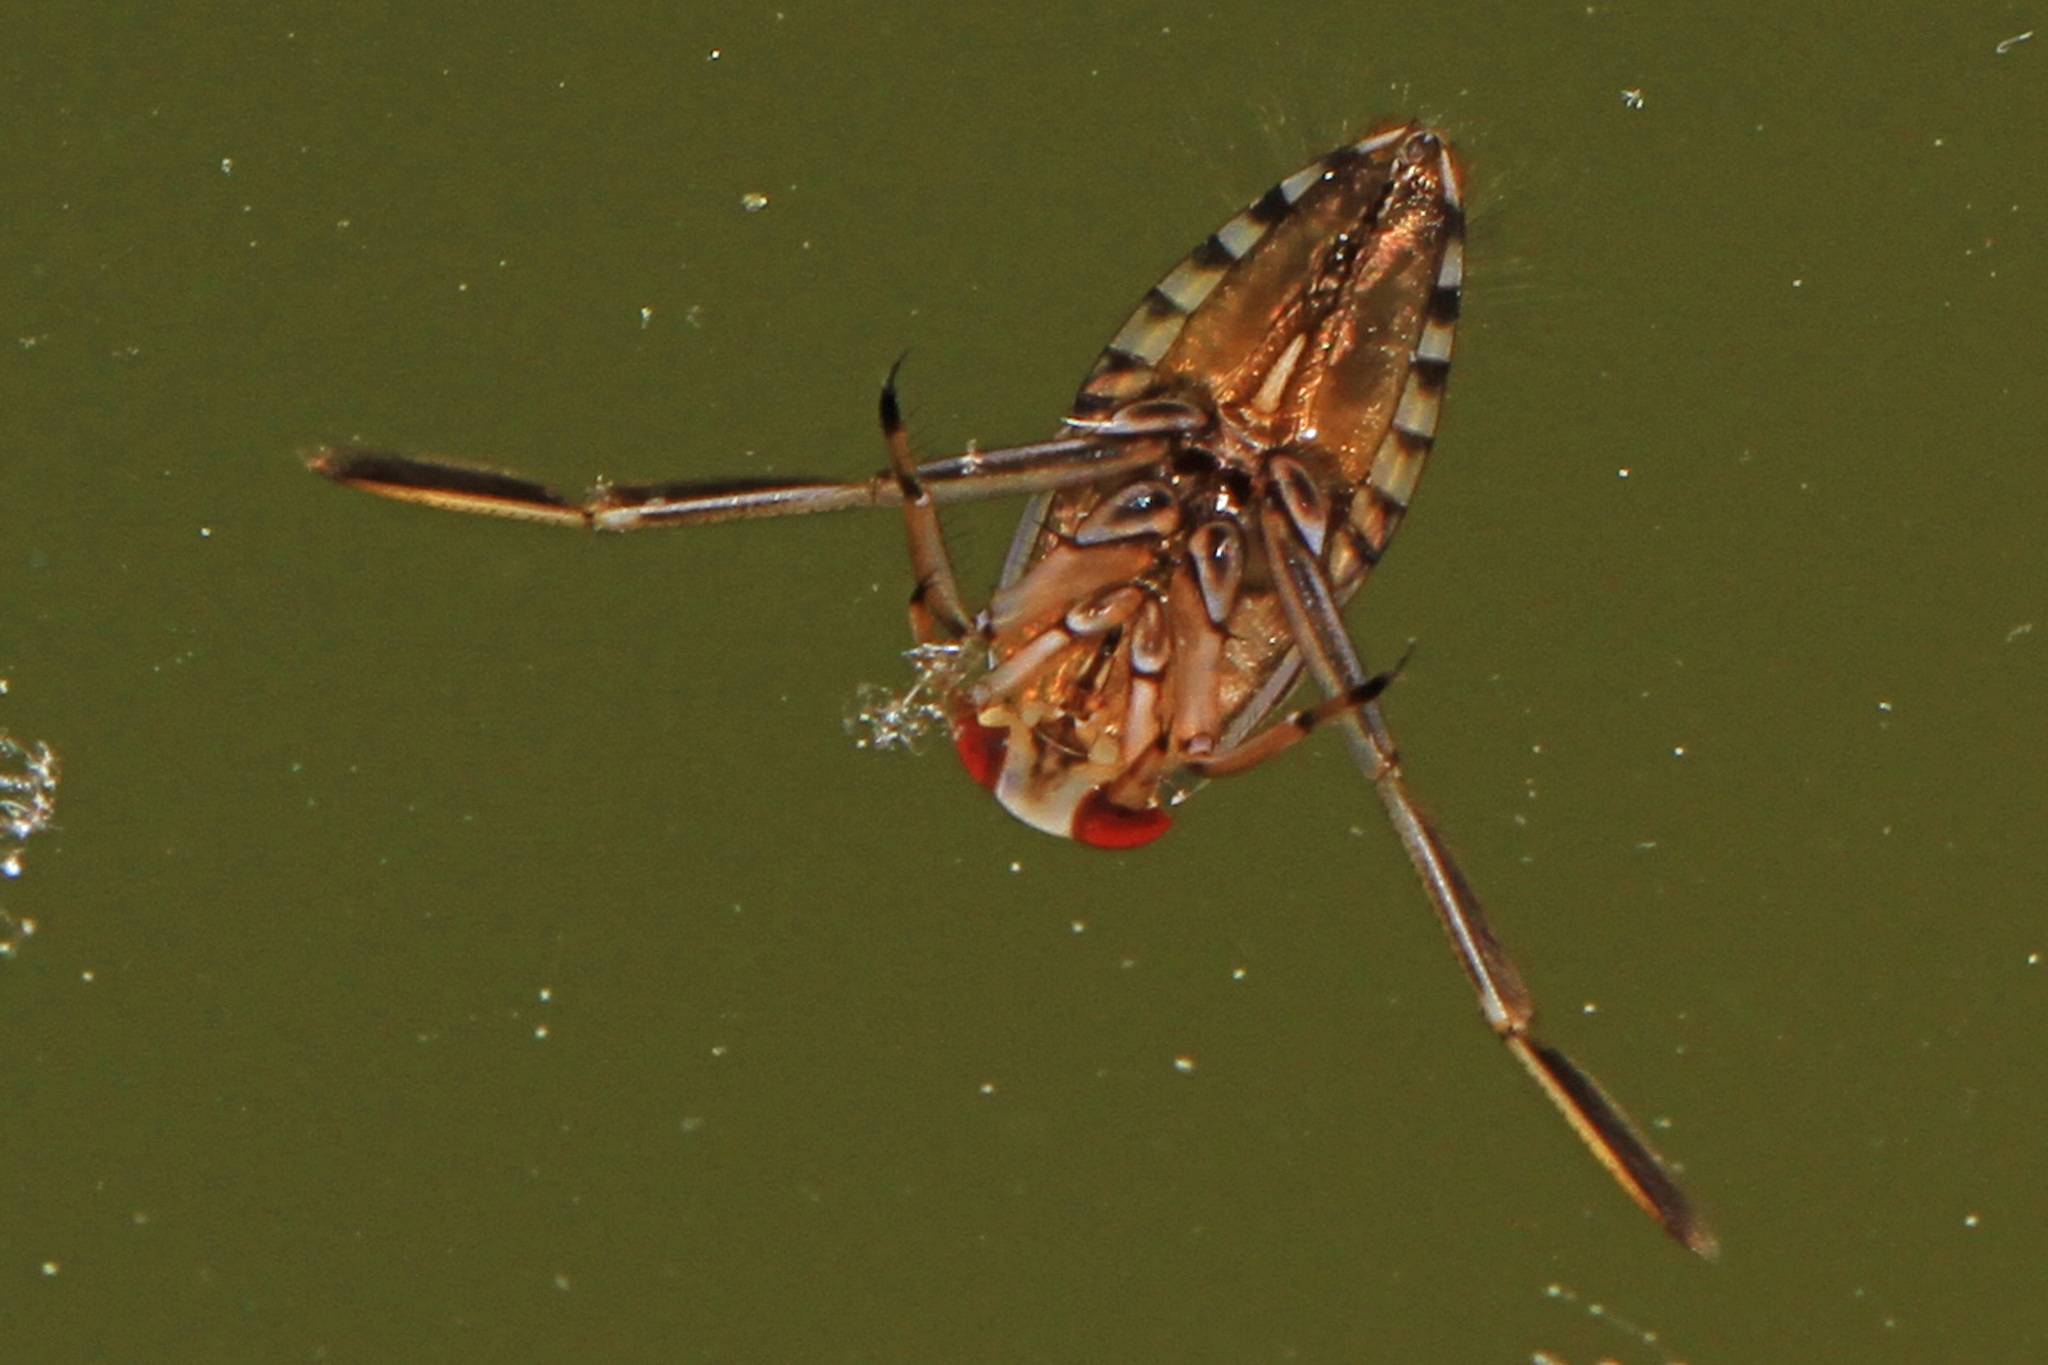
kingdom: Animalia
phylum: Arthropoda
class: Insecta
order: Hemiptera
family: Notonectidae
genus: Notonecta
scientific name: Notonecta
